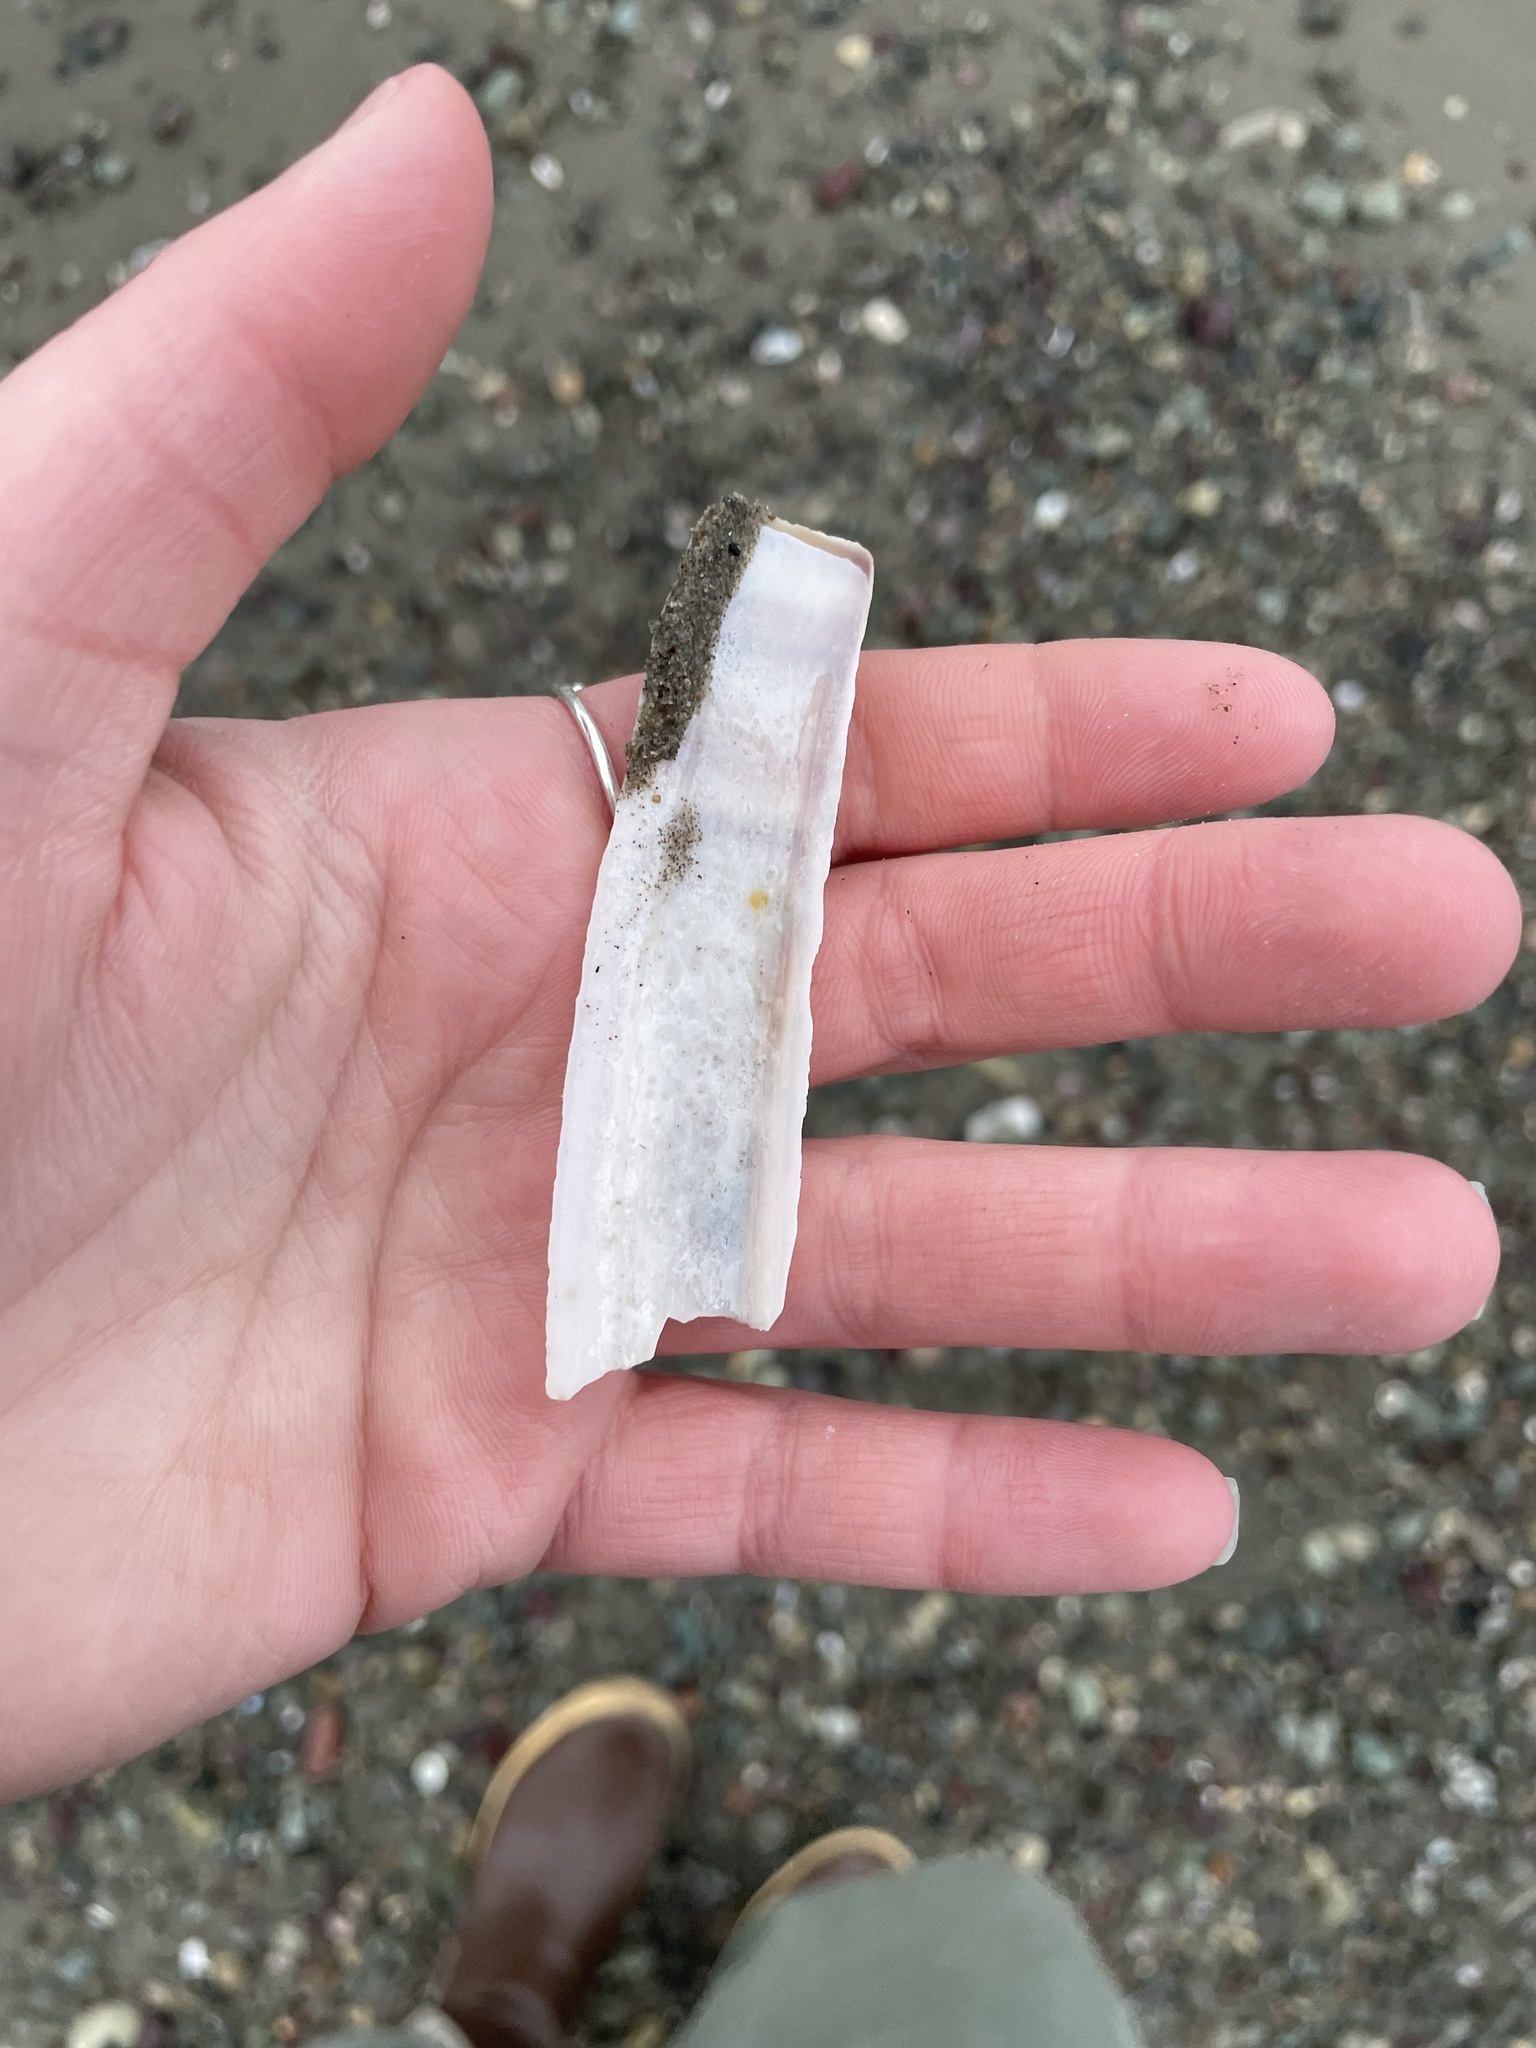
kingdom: Animalia
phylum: Mollusca
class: Bivalvia
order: Adapedonta
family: Pharidae
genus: Ensis
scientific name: Ensis leei
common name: American jack knife clam
